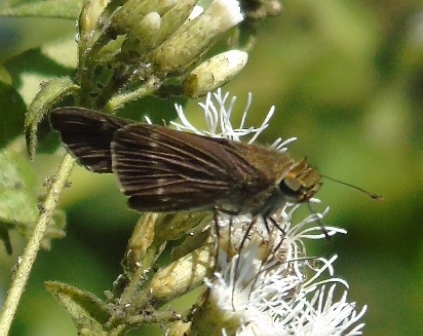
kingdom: Animalia
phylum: Arthropoda
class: Insecta
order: Lepidoptera
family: Hesperiidae
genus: Turesis
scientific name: Turesis lucas
